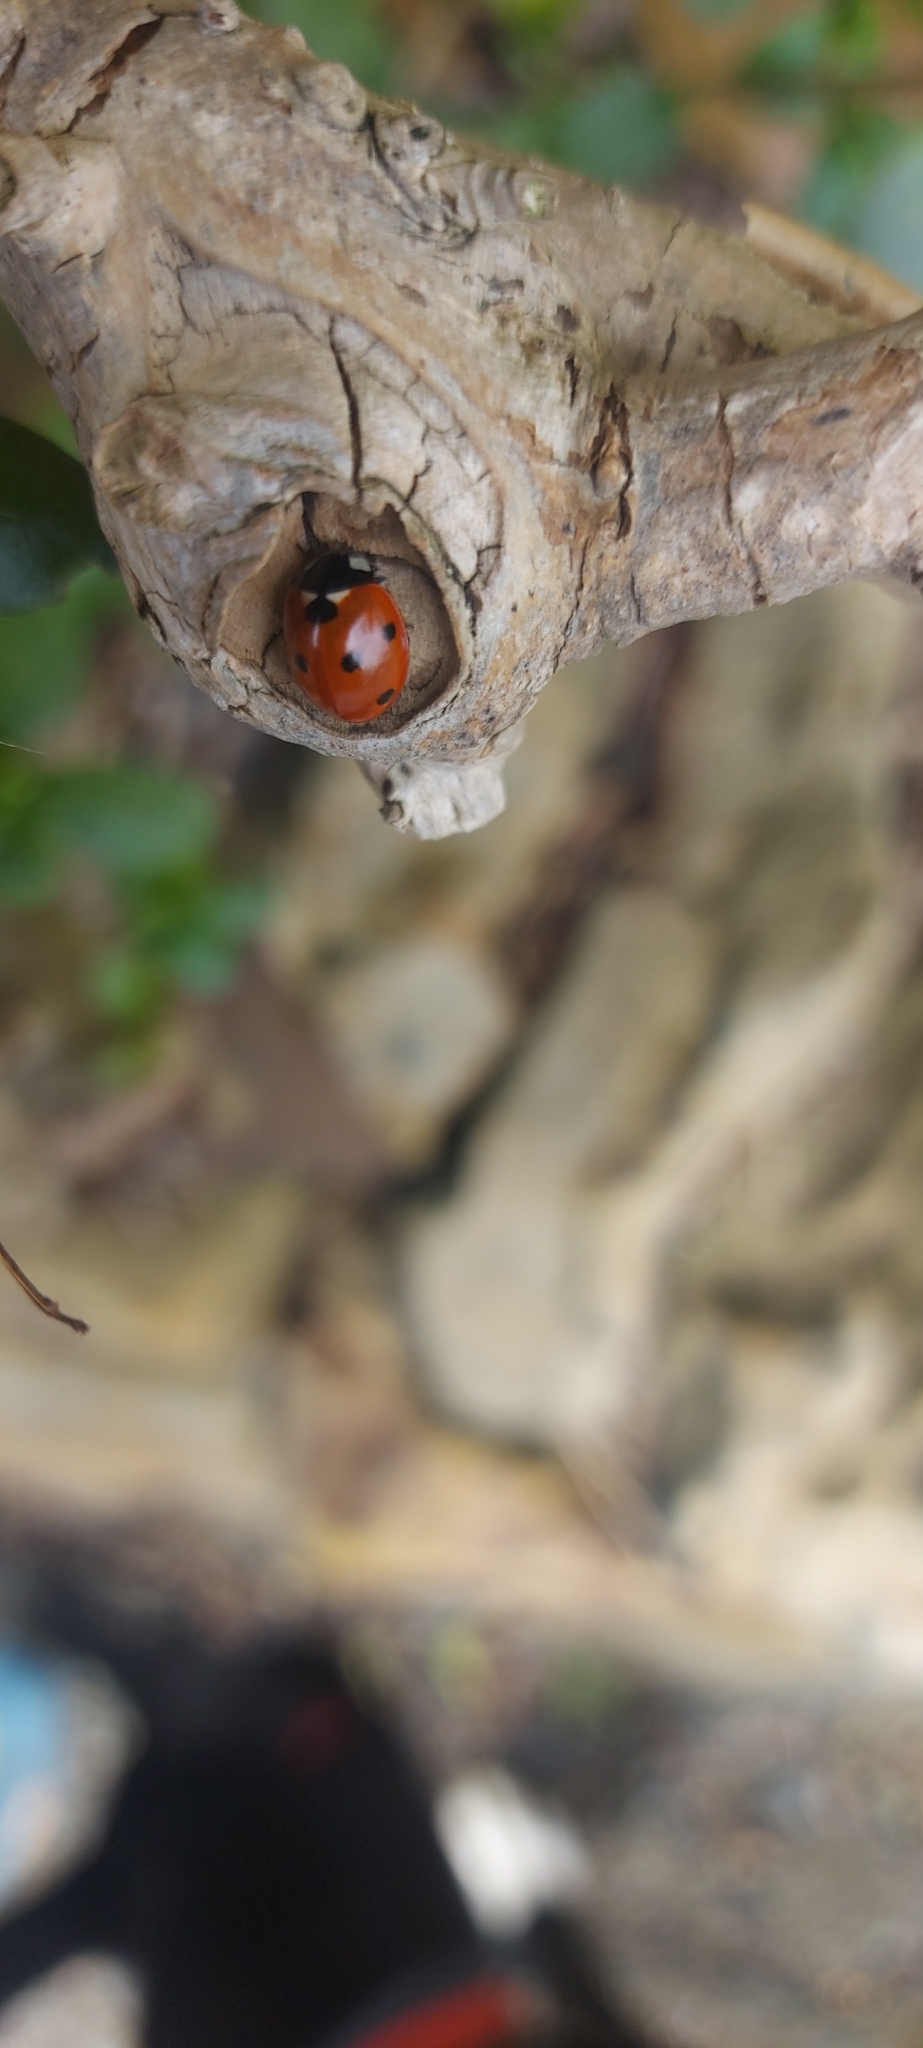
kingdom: Animalia
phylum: Arthropoda
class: Insecta
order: Coleoptera
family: Coccinellidae
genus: Coccinella
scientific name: Coccinella septempunctata
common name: Sevenspotted lady beetle
